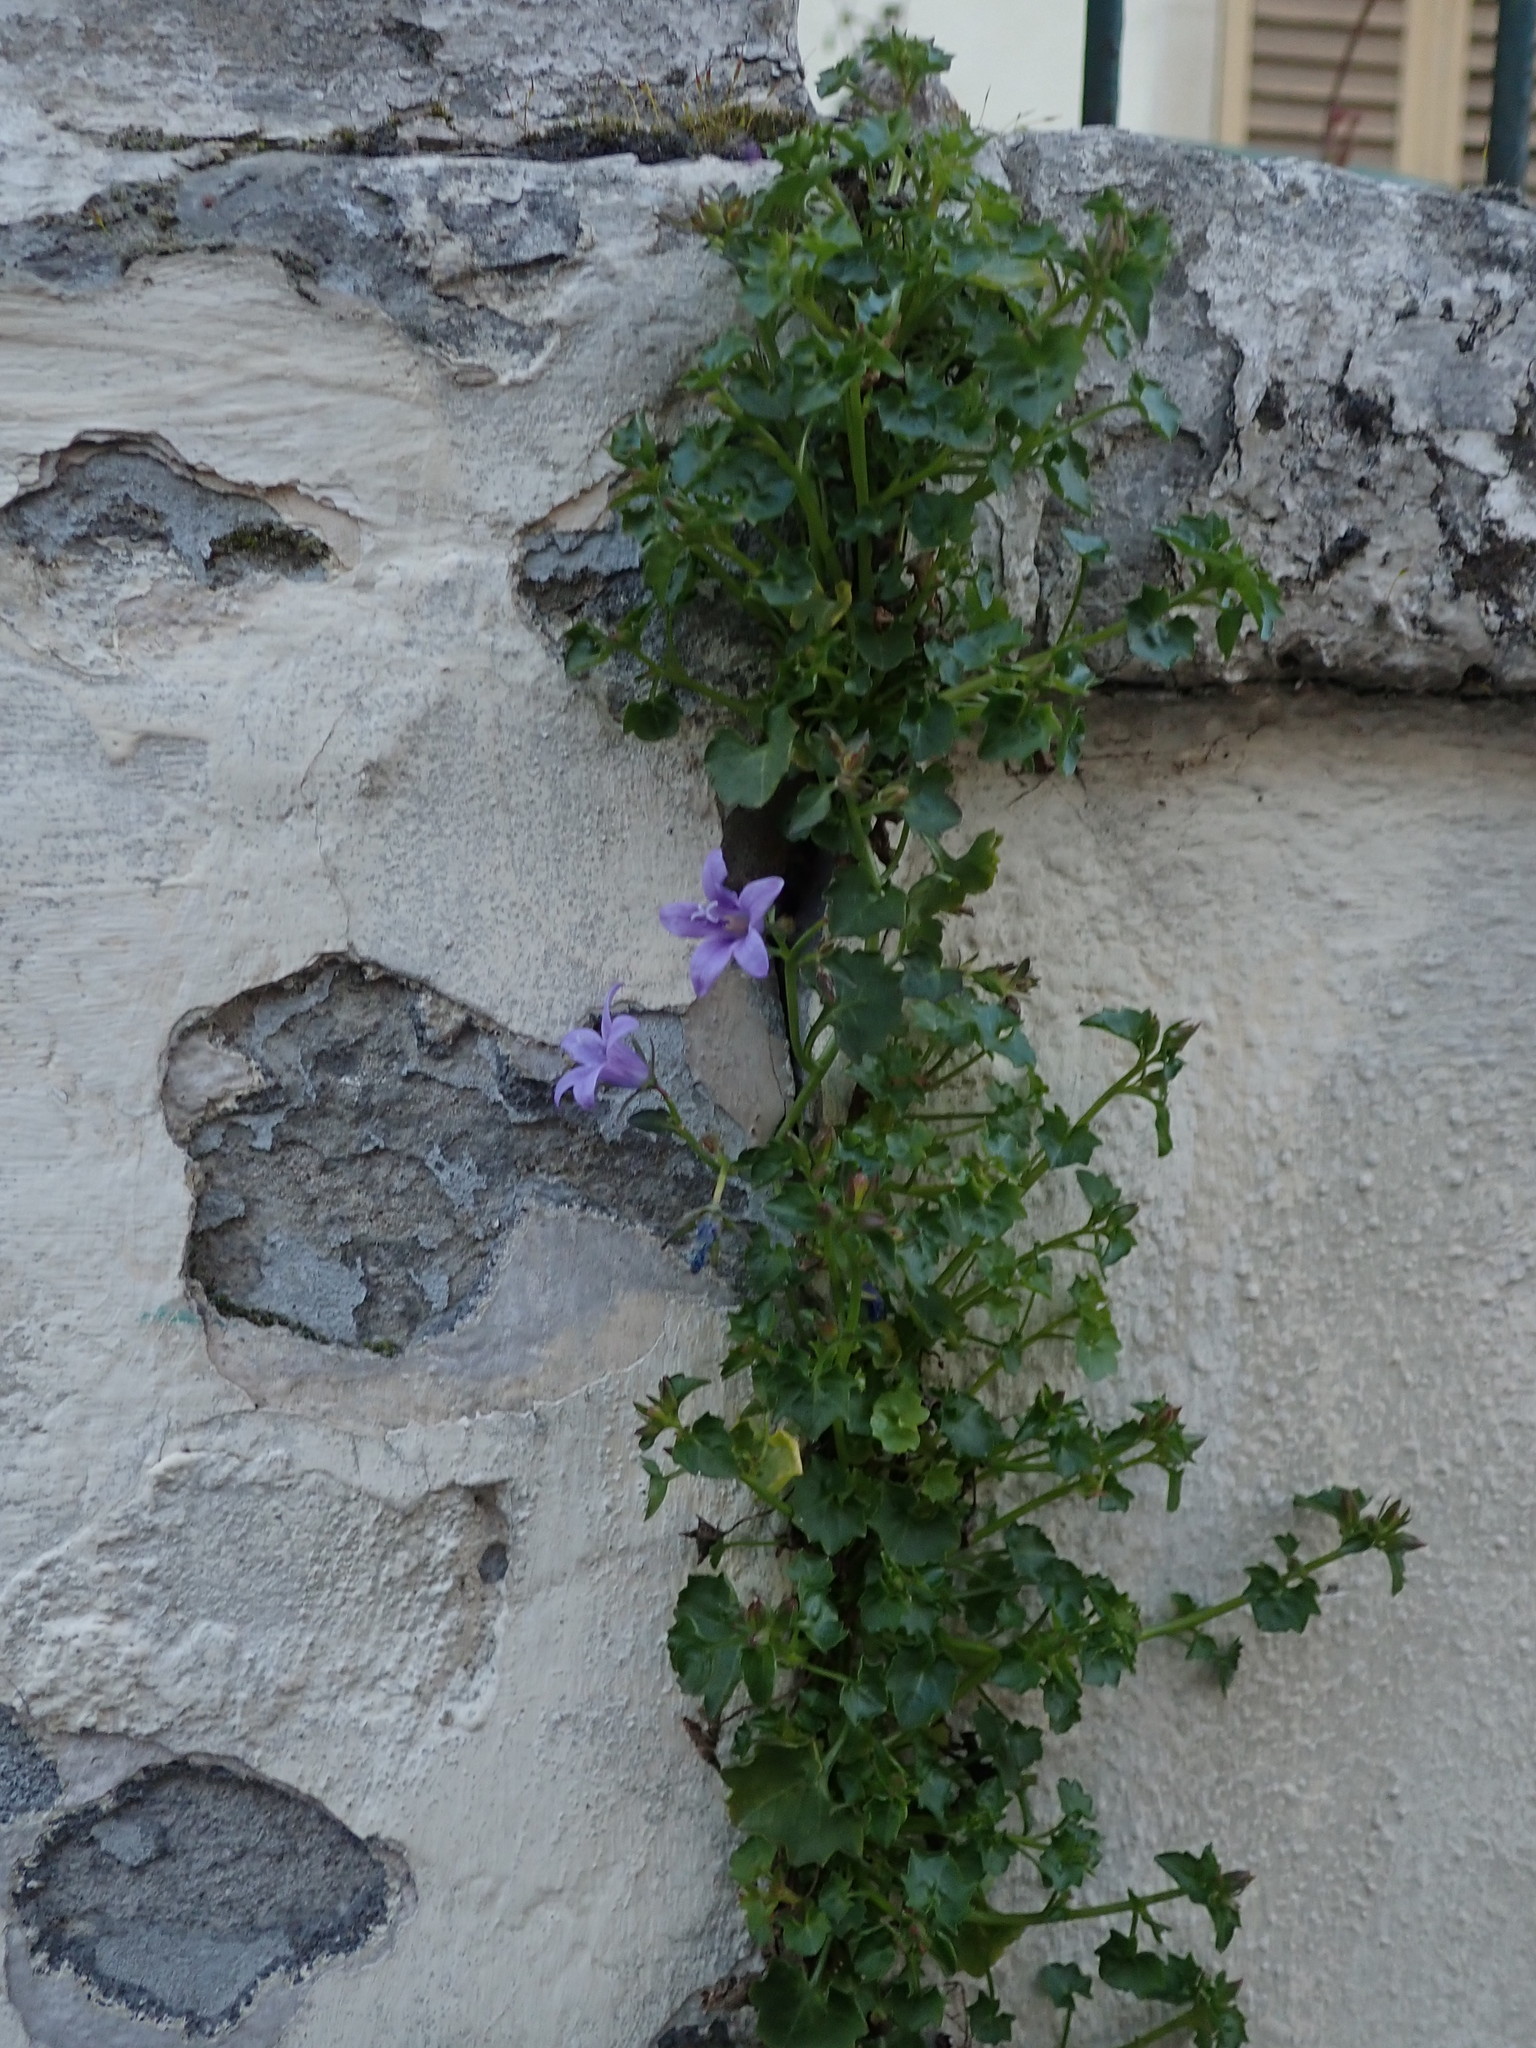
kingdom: Plantae
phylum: Tracheophyta
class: Magnoliopsida
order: Asterales
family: Campanulaceae
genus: Campanula
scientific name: Campanula portenschlagiana
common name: Adria bellflower
